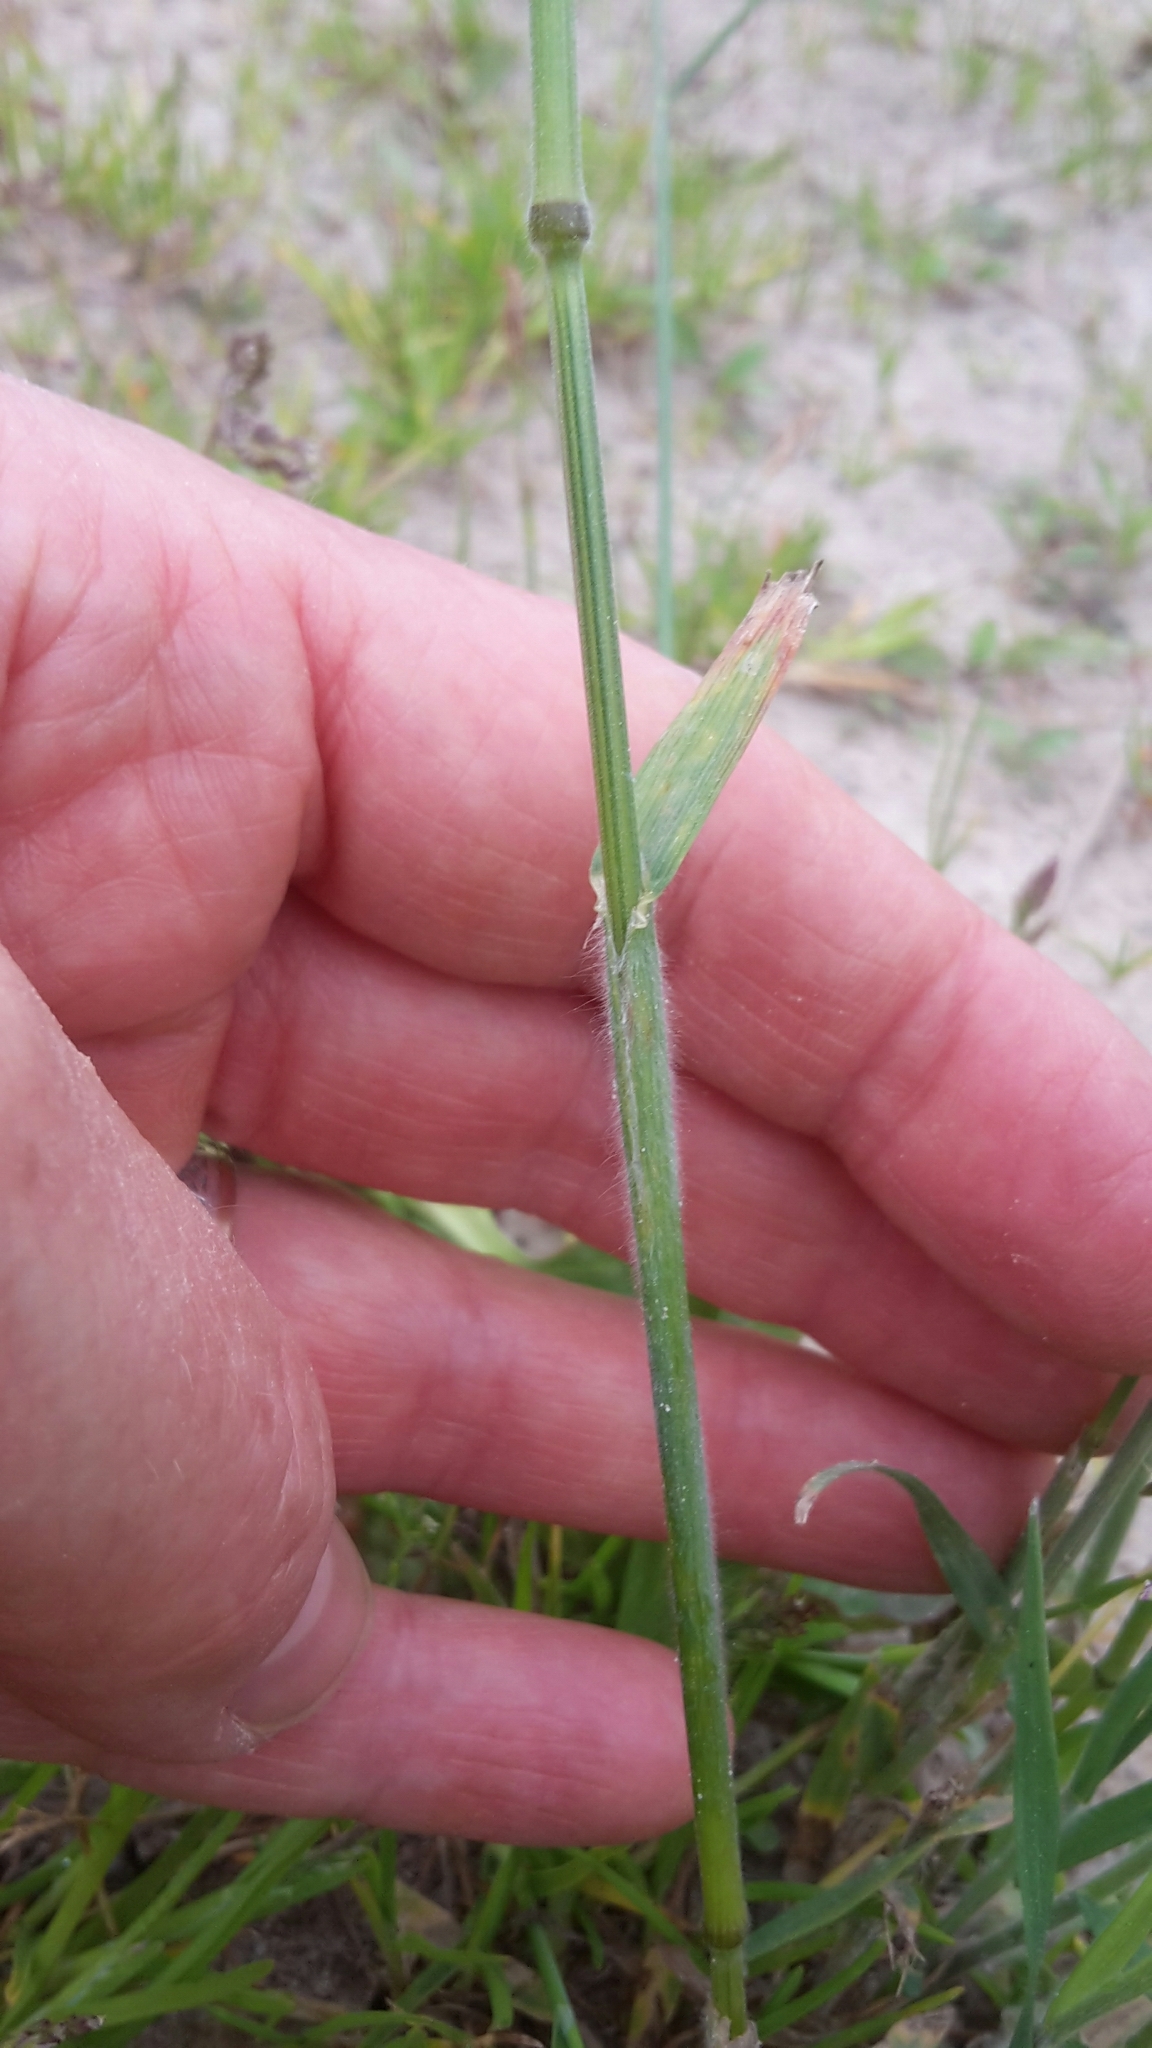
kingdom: Plantae
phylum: Tracheophyta
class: Liliopsida
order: Poales
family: Poaceae
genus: Bromus
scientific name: Bromus hordeaceus
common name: Soft brome
